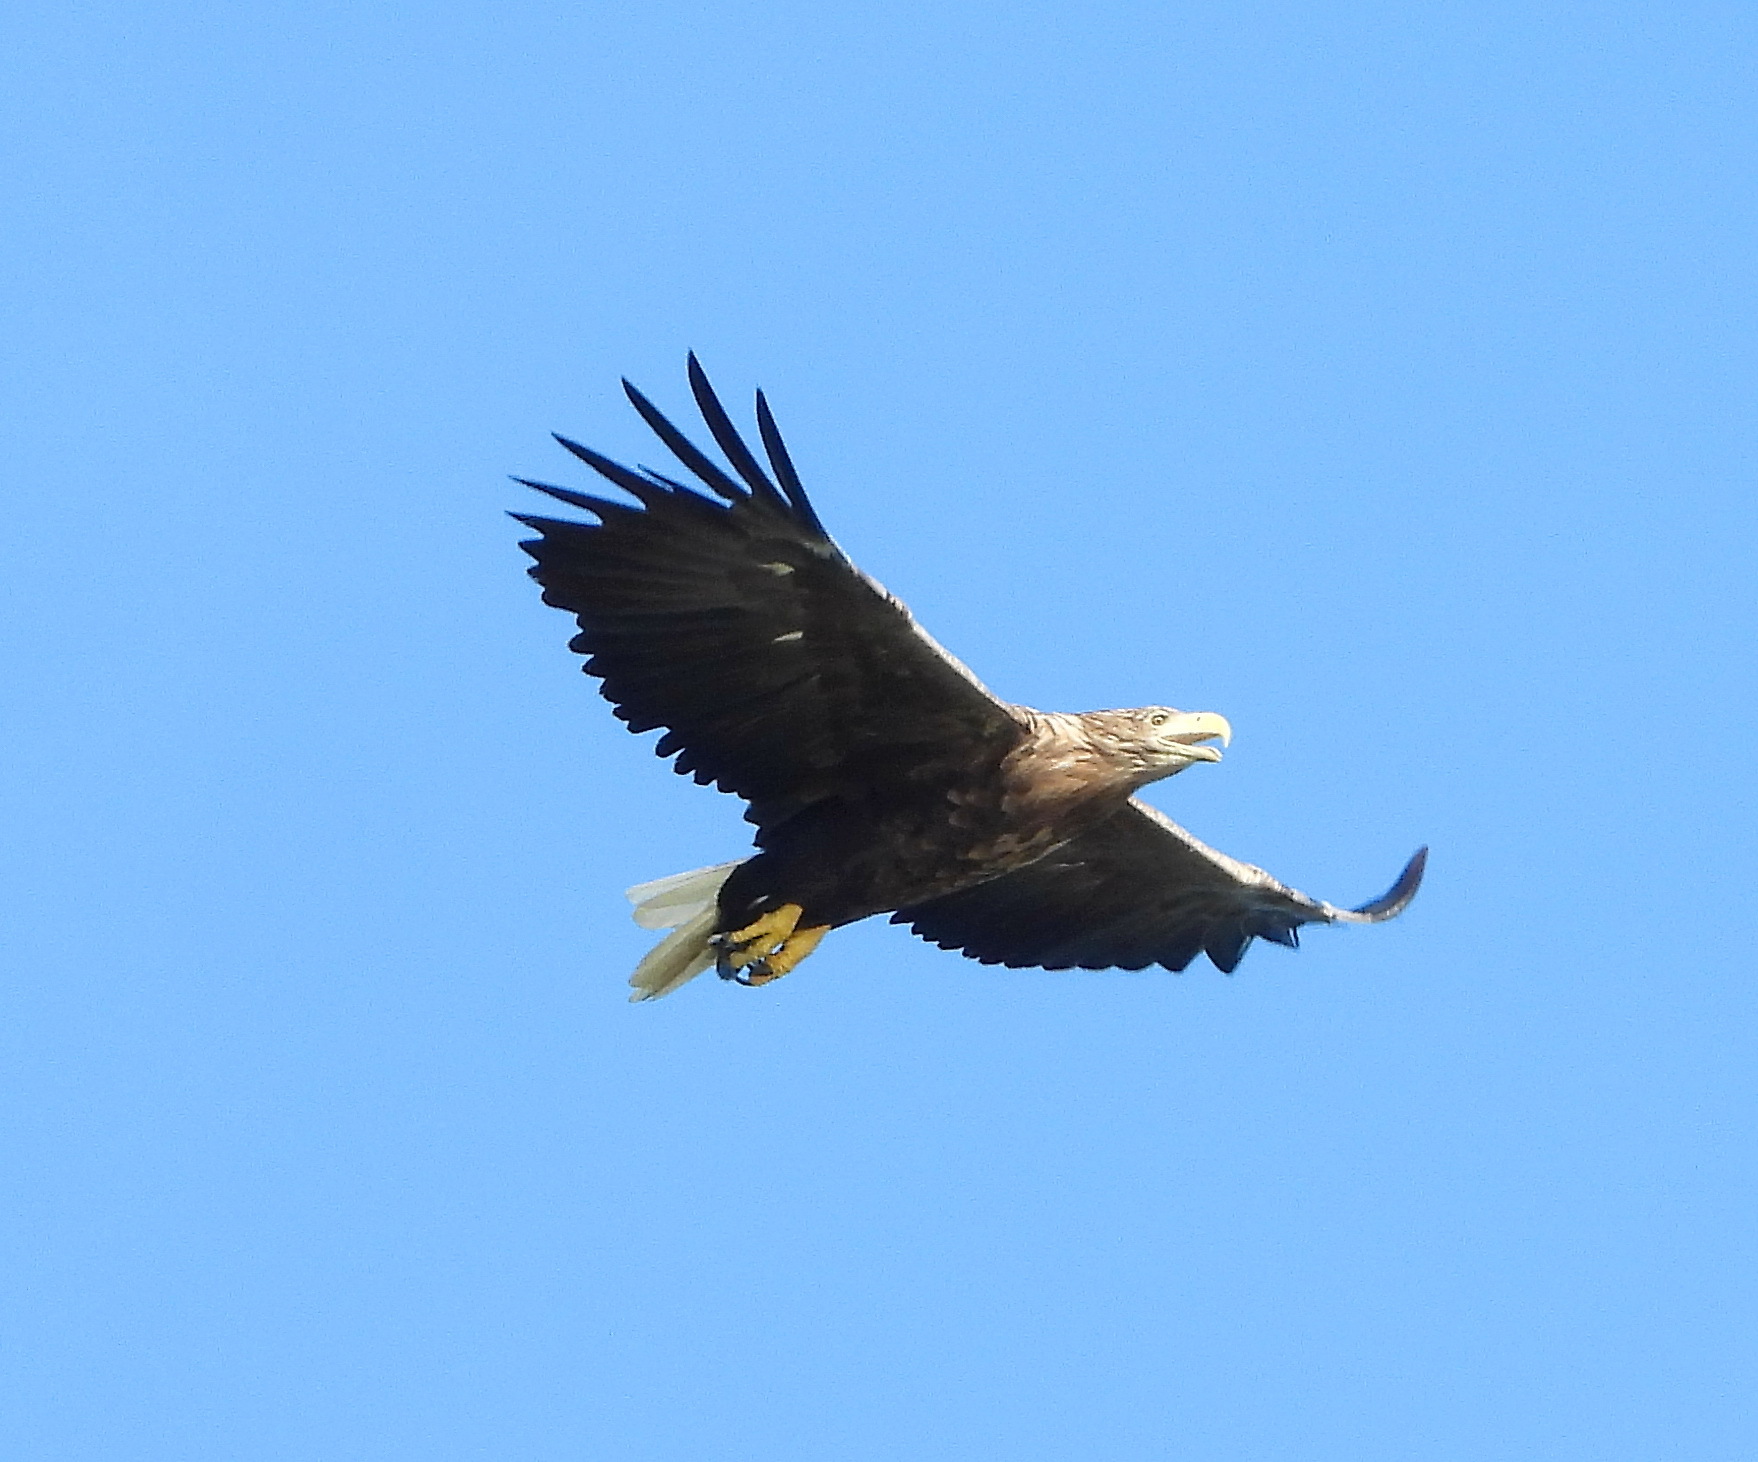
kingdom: Animalia
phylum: Chordata
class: Aves
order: Accipitriformes
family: Accipitridae
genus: Haliaeetus
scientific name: Haliaeetus albicilla
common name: White-tailed eagle
